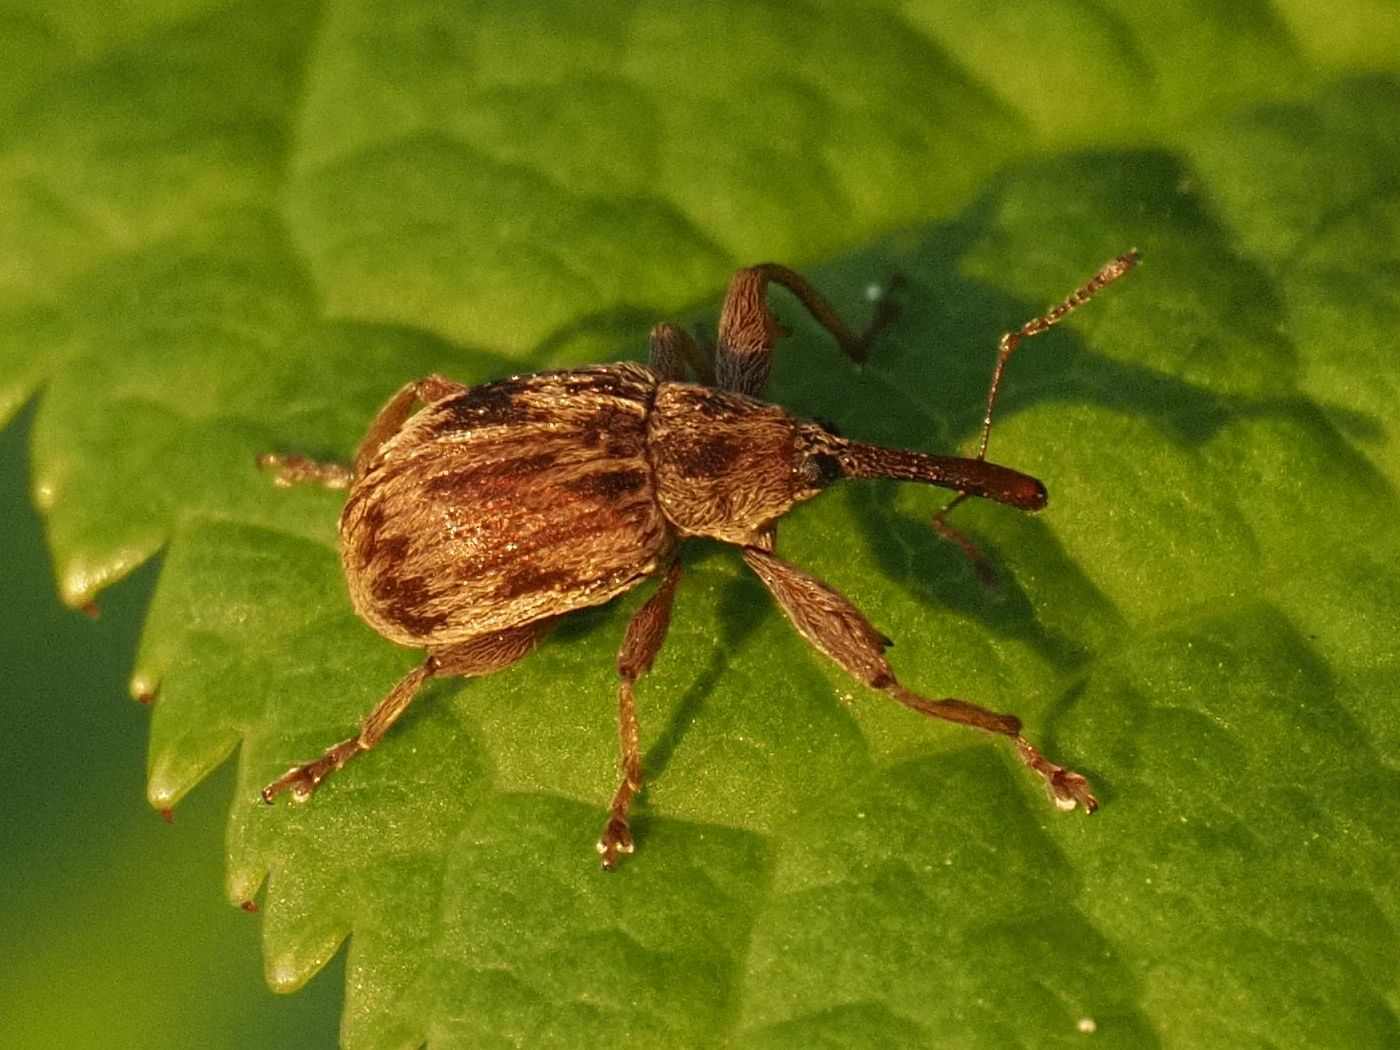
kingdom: Animalia
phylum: Arthropoda
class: Insecta
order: Coleoptera
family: Curculionidae
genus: Anthonomus
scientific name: Anthonomus rectirostris
